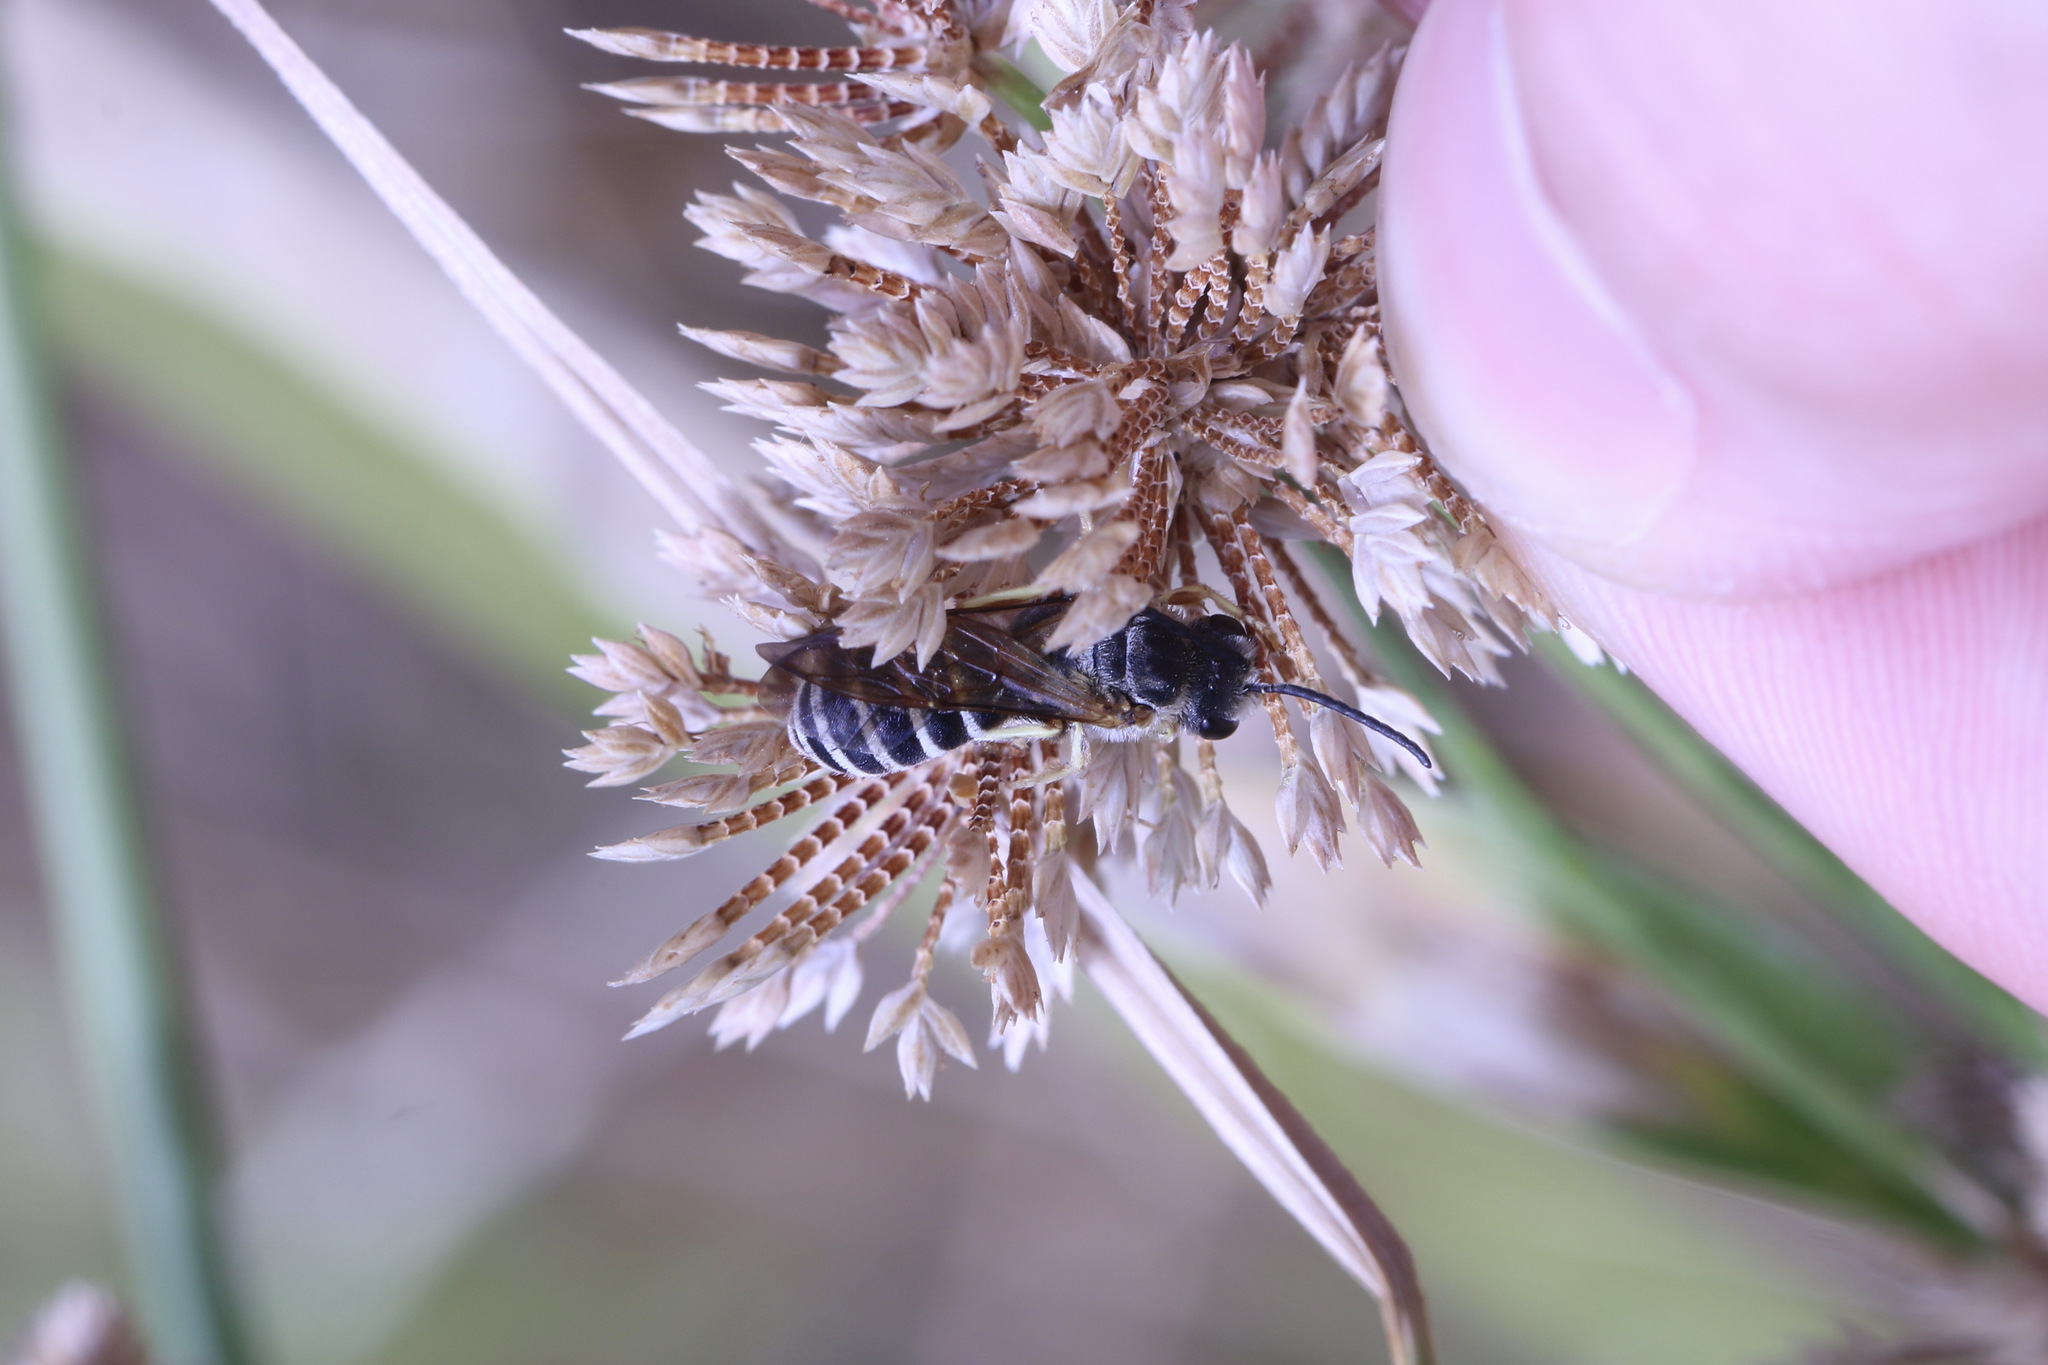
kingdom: Animalia
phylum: Arthropoda
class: Insecta
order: Hymenoptera
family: Halictidae
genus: Halictus
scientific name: Halictus farinosus
